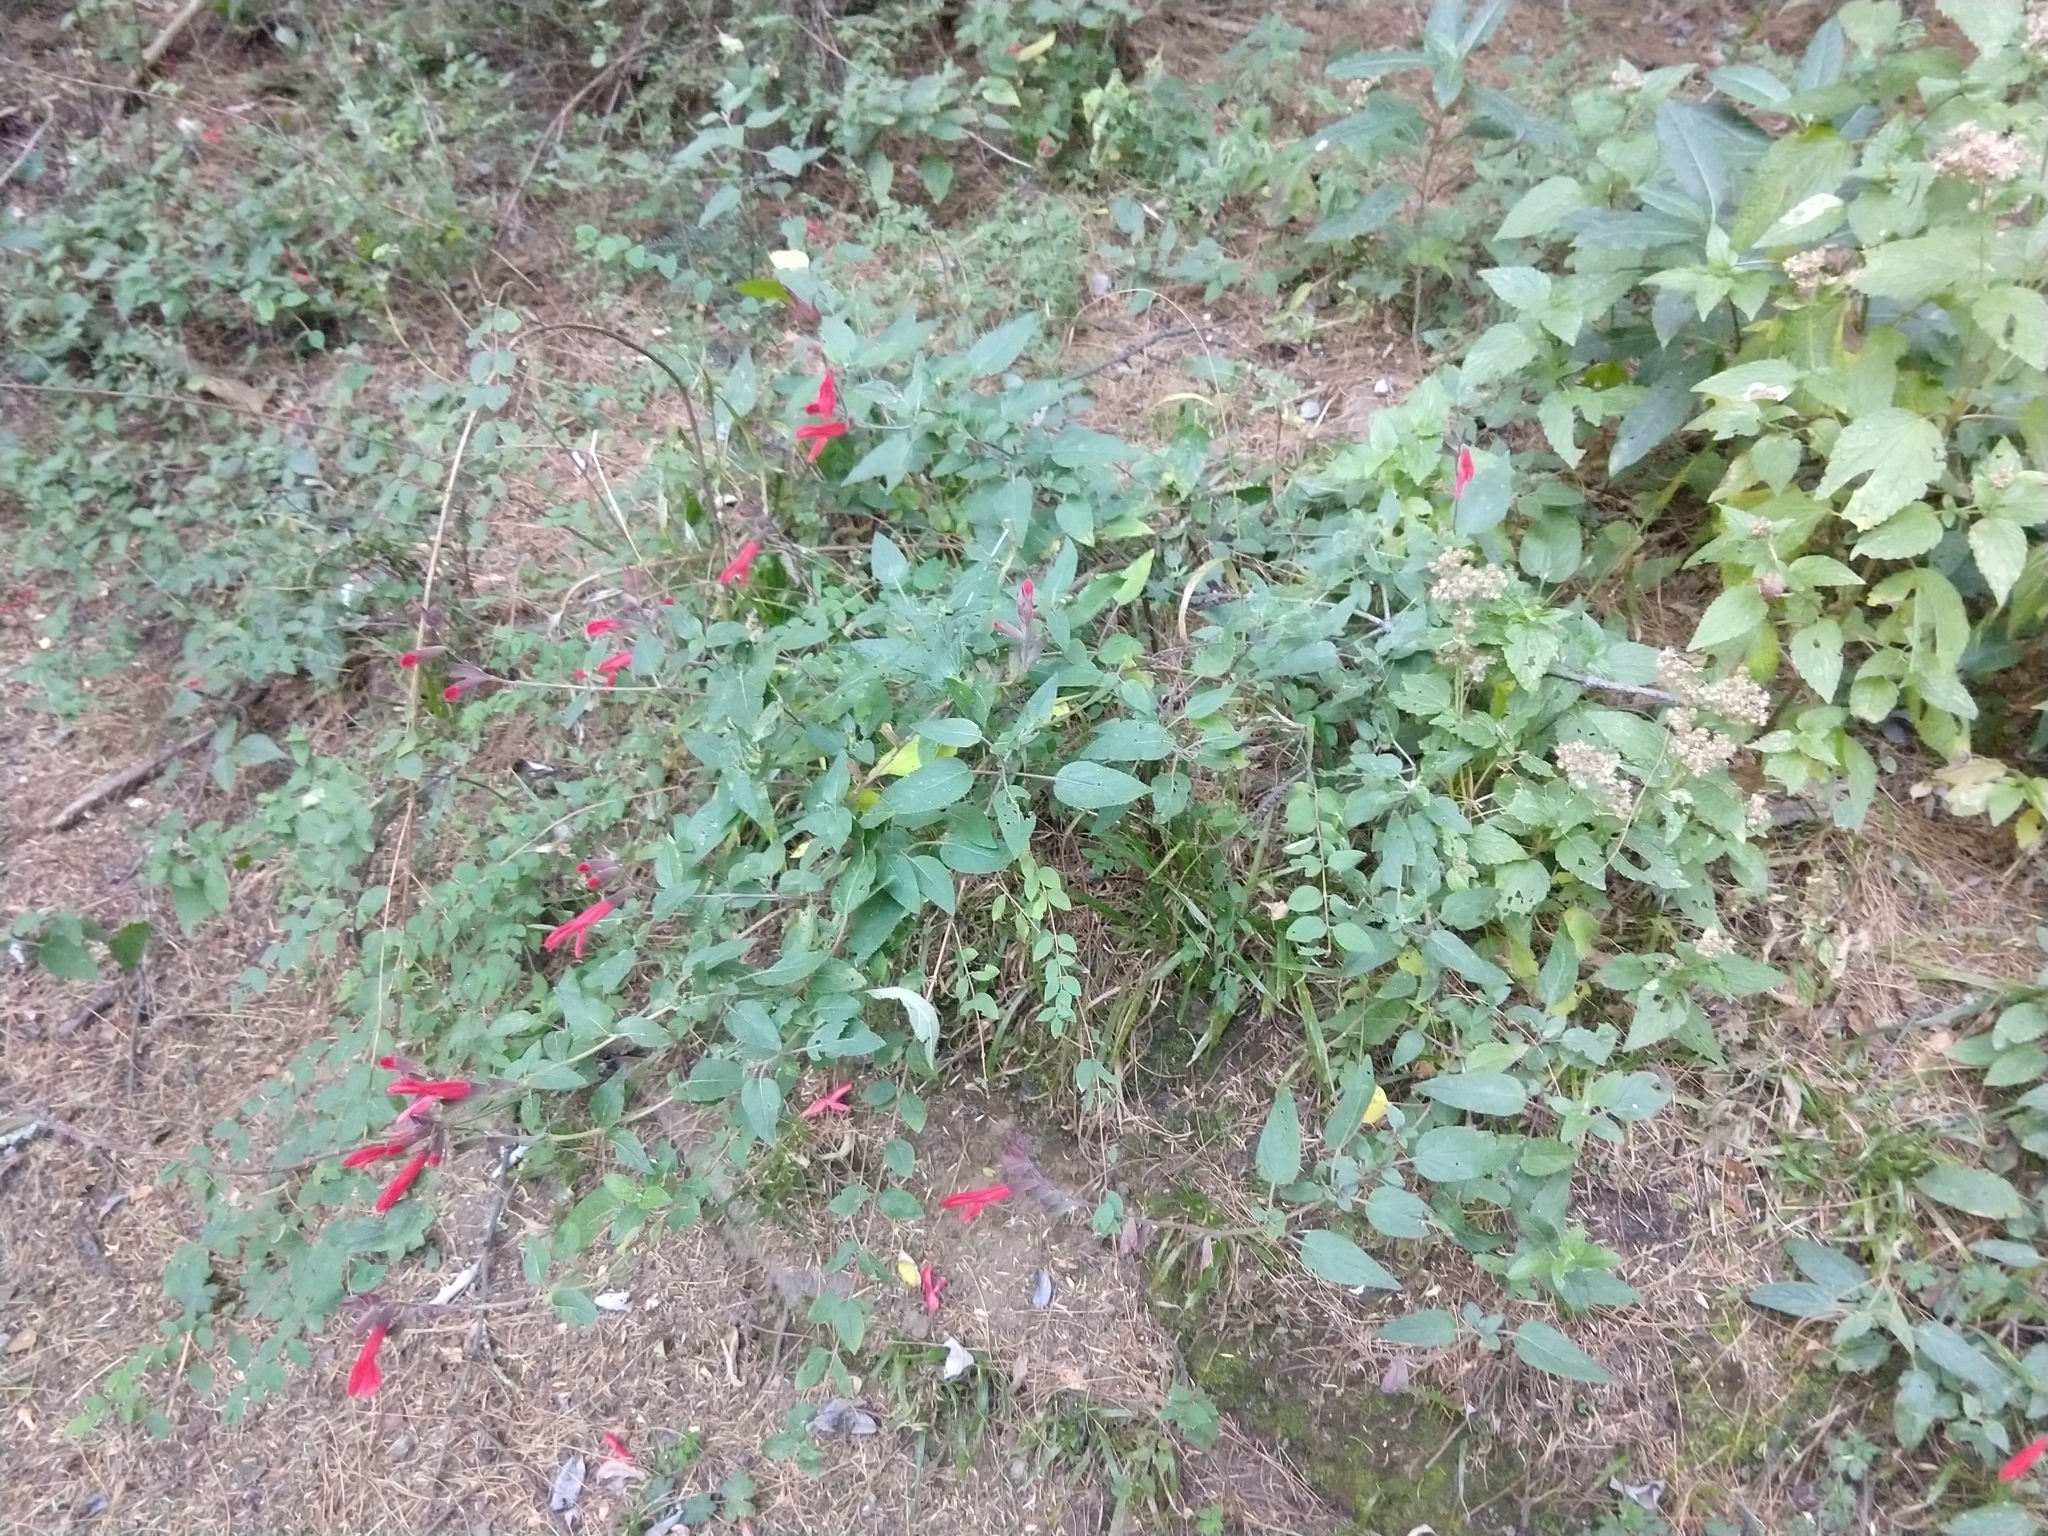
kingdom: Plantae
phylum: Tracheophyta
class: Magnoliopsida
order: Lamiales
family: Lamiaceae
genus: Salvia
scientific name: Salvia fulgens
